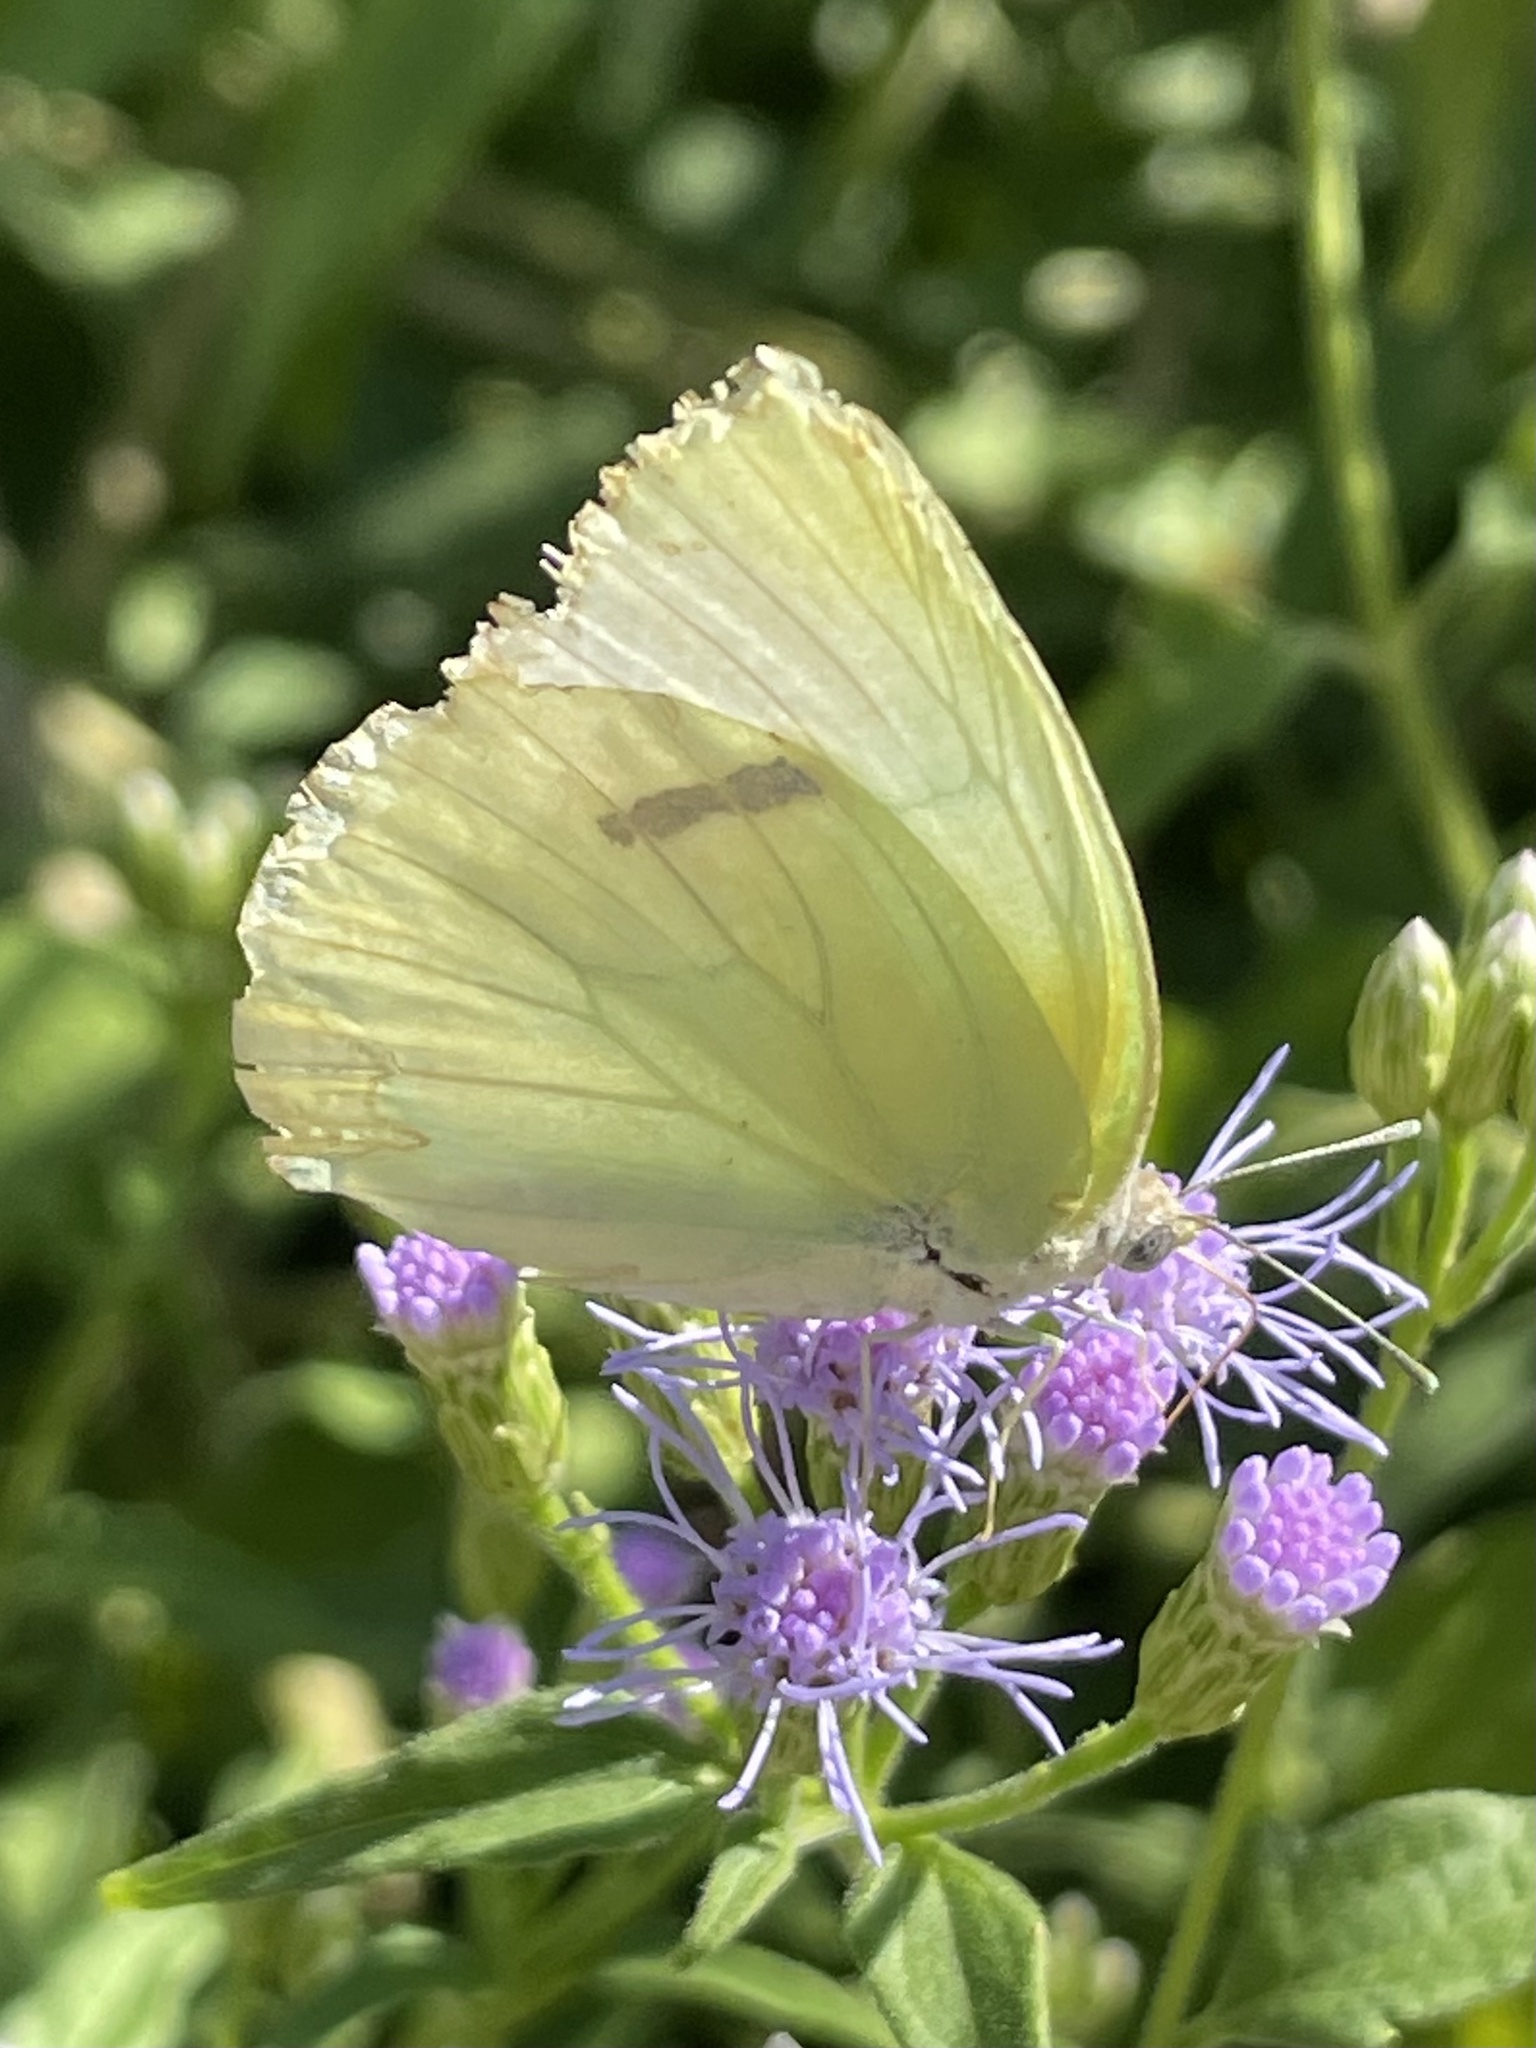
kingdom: Animalia
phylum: Arthropoda
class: Insecta
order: Lepidoptera
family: Pieridae
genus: Kricogonia
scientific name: Kricogonia lyside
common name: Guayacan sulphur,
